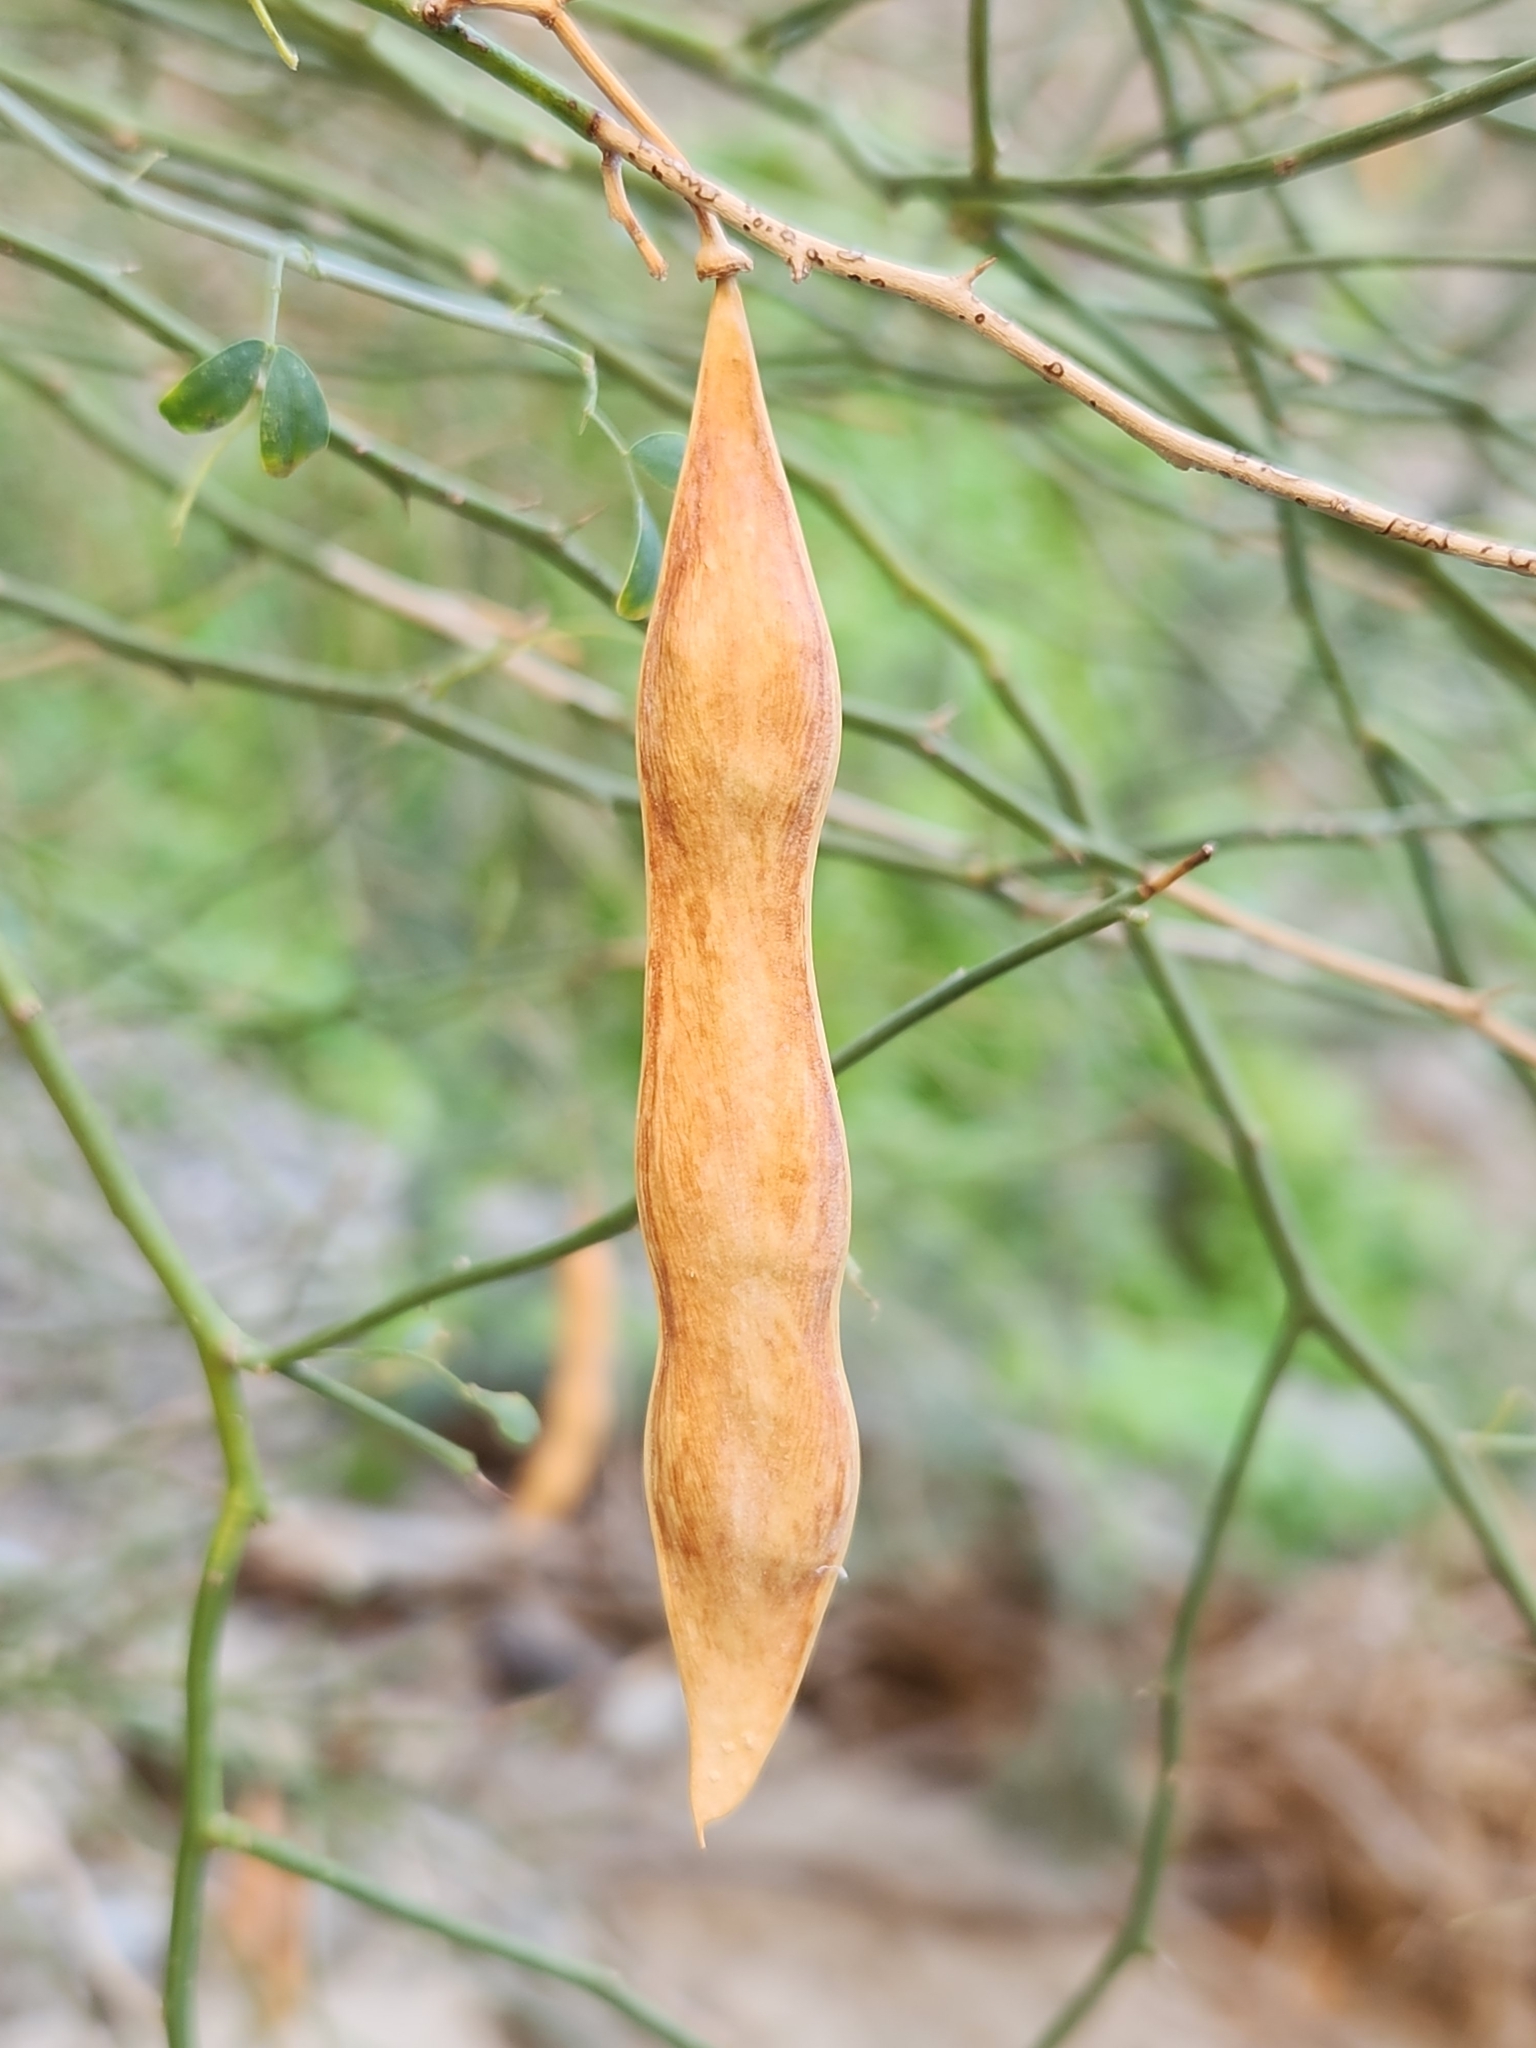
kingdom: Plantae
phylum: Tracheophyta
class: Magnoliopsida
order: Fabales
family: Fabaceae
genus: Parkinsonia
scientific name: Parkinsonia florida
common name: Blue paloverde
